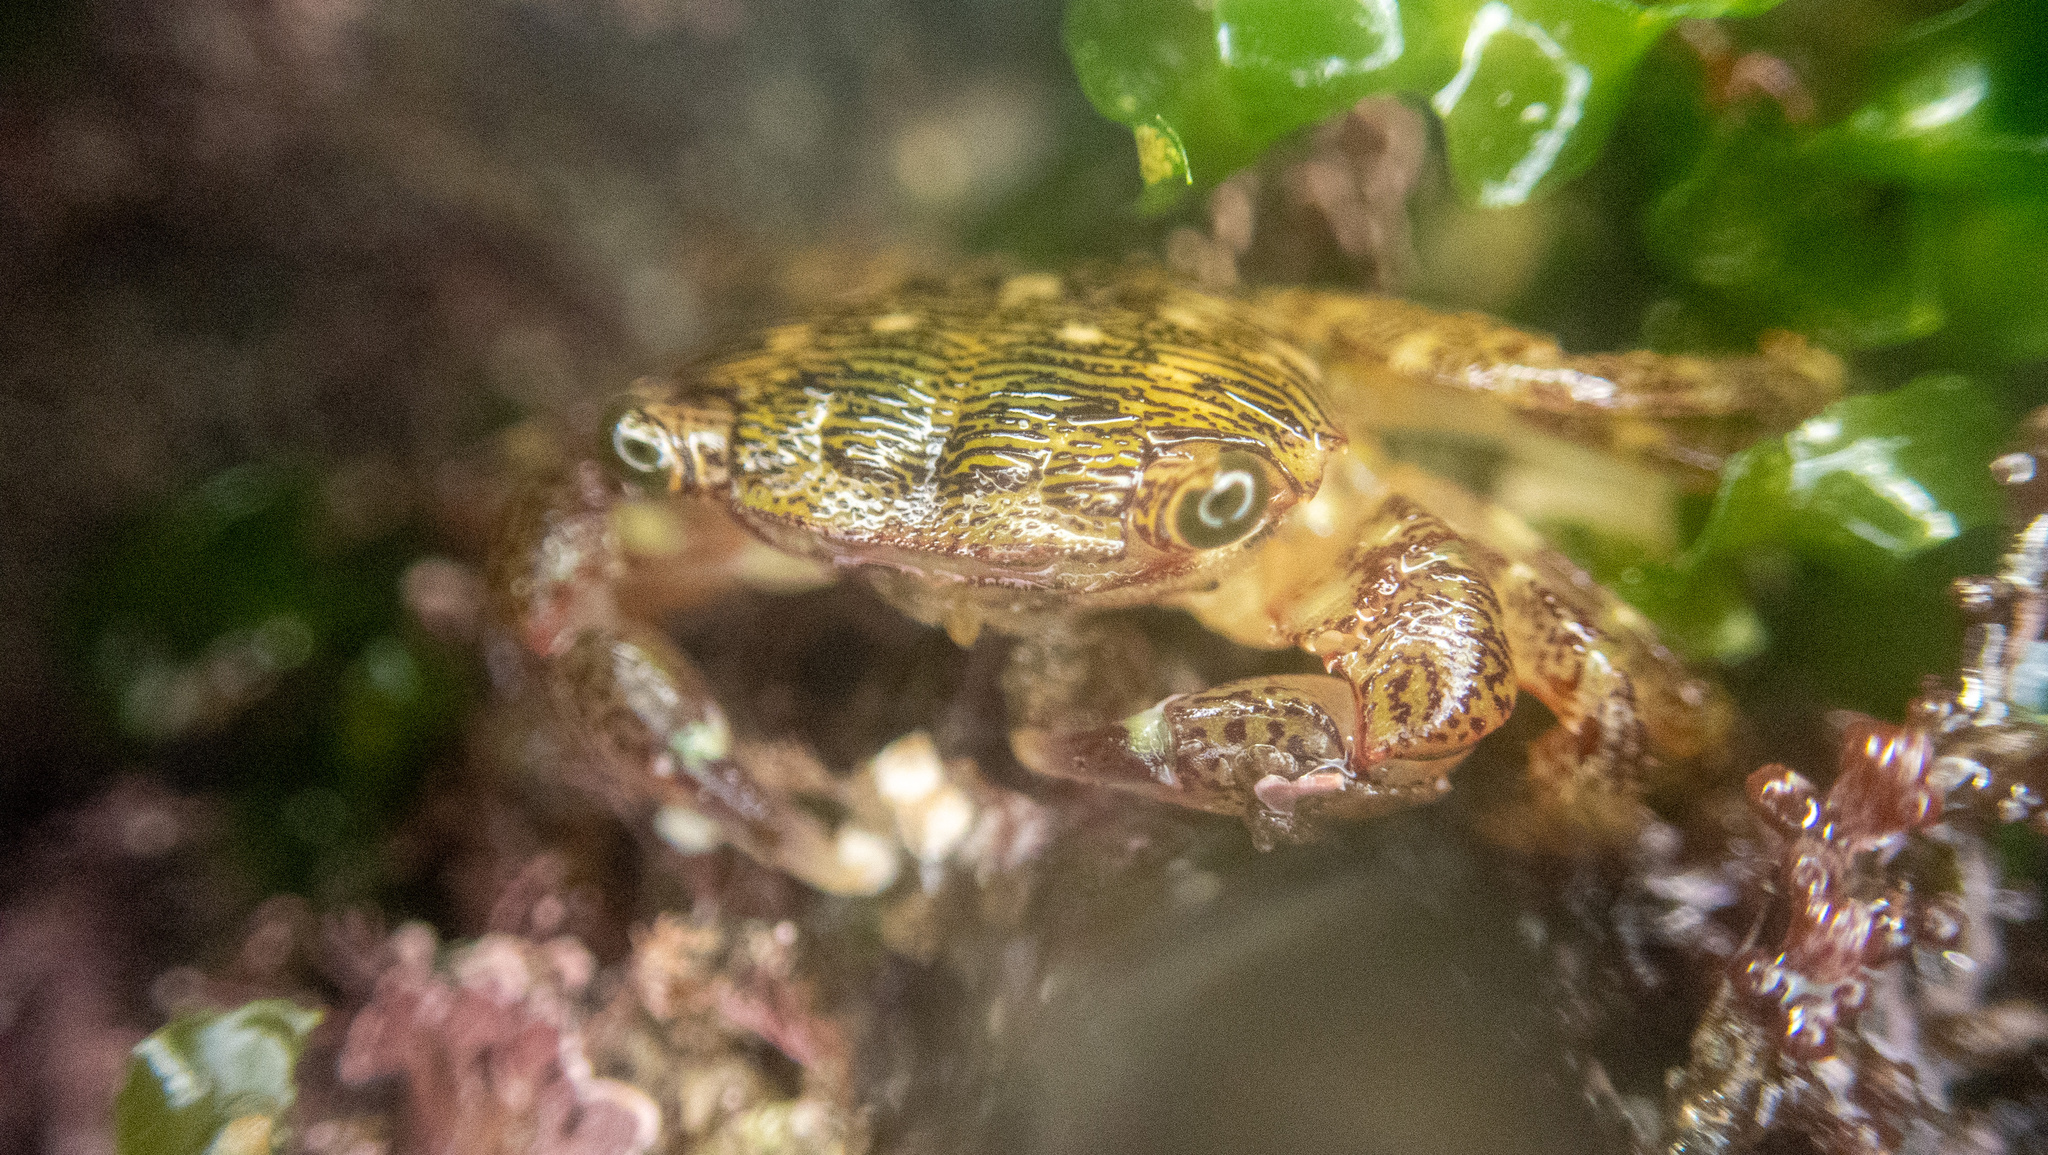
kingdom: Animalia
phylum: Arthropoda
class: Malacostraca
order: Decapoda
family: Grapsidae
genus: Pachygrapsus
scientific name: Pachygrapsus crassipes
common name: Striped shore crab
